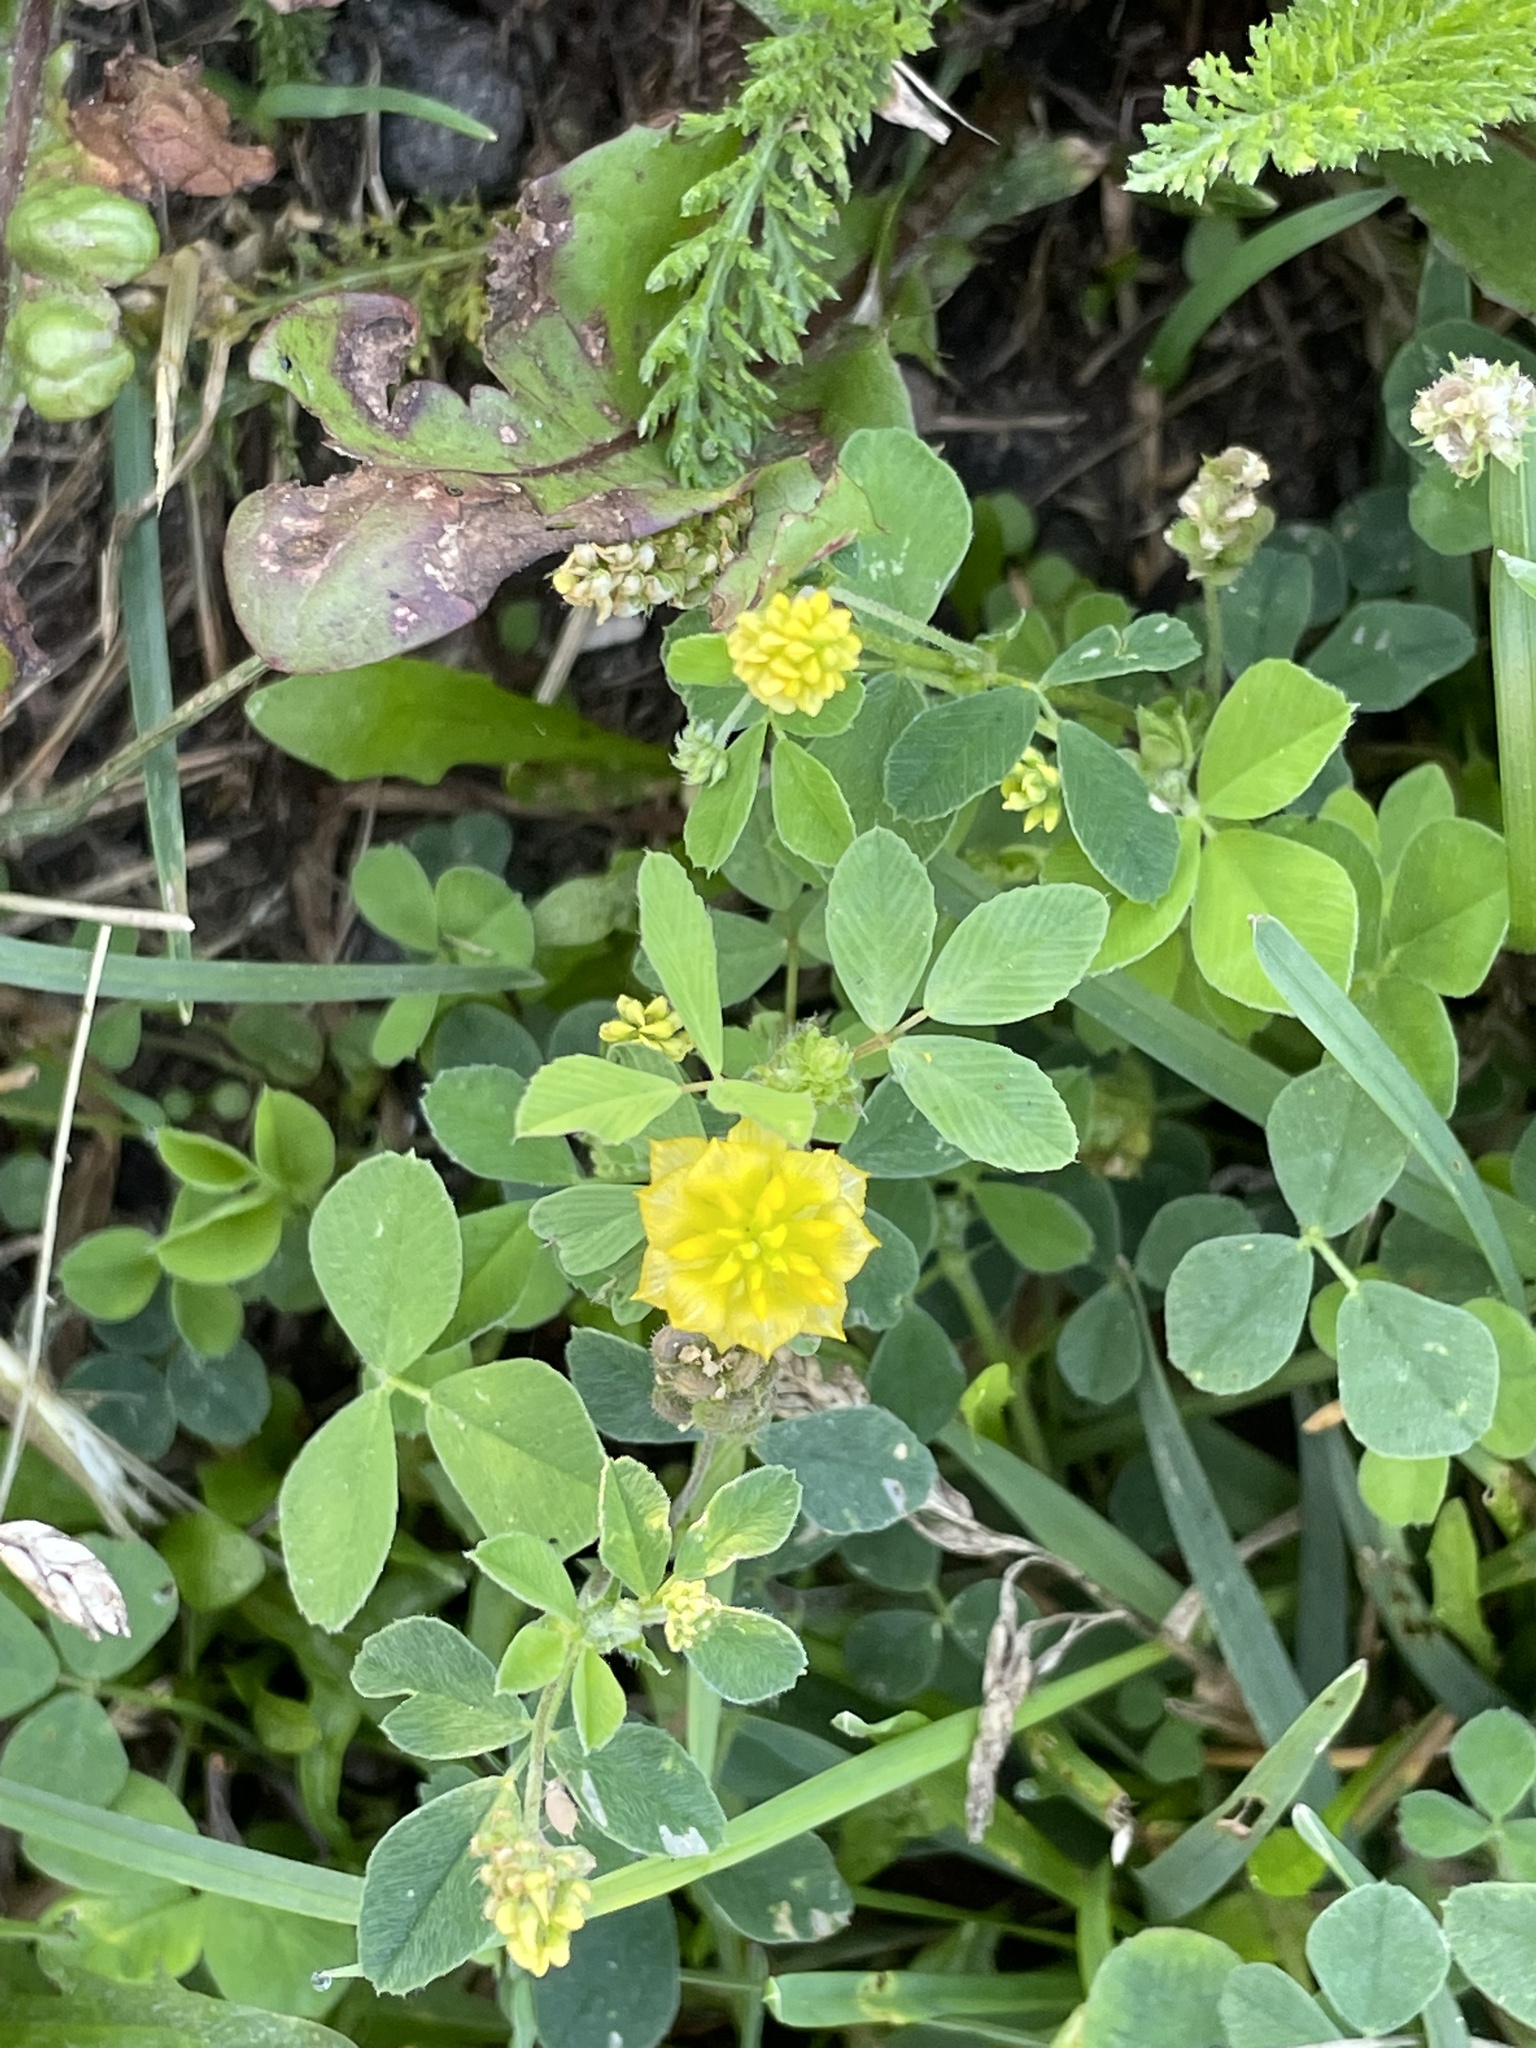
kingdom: Plantae
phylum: Tracheophyta
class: Magnoliopsida
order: Fabales
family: Fabaceae
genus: Medicago
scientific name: Medicago lupulina
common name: Black medick
